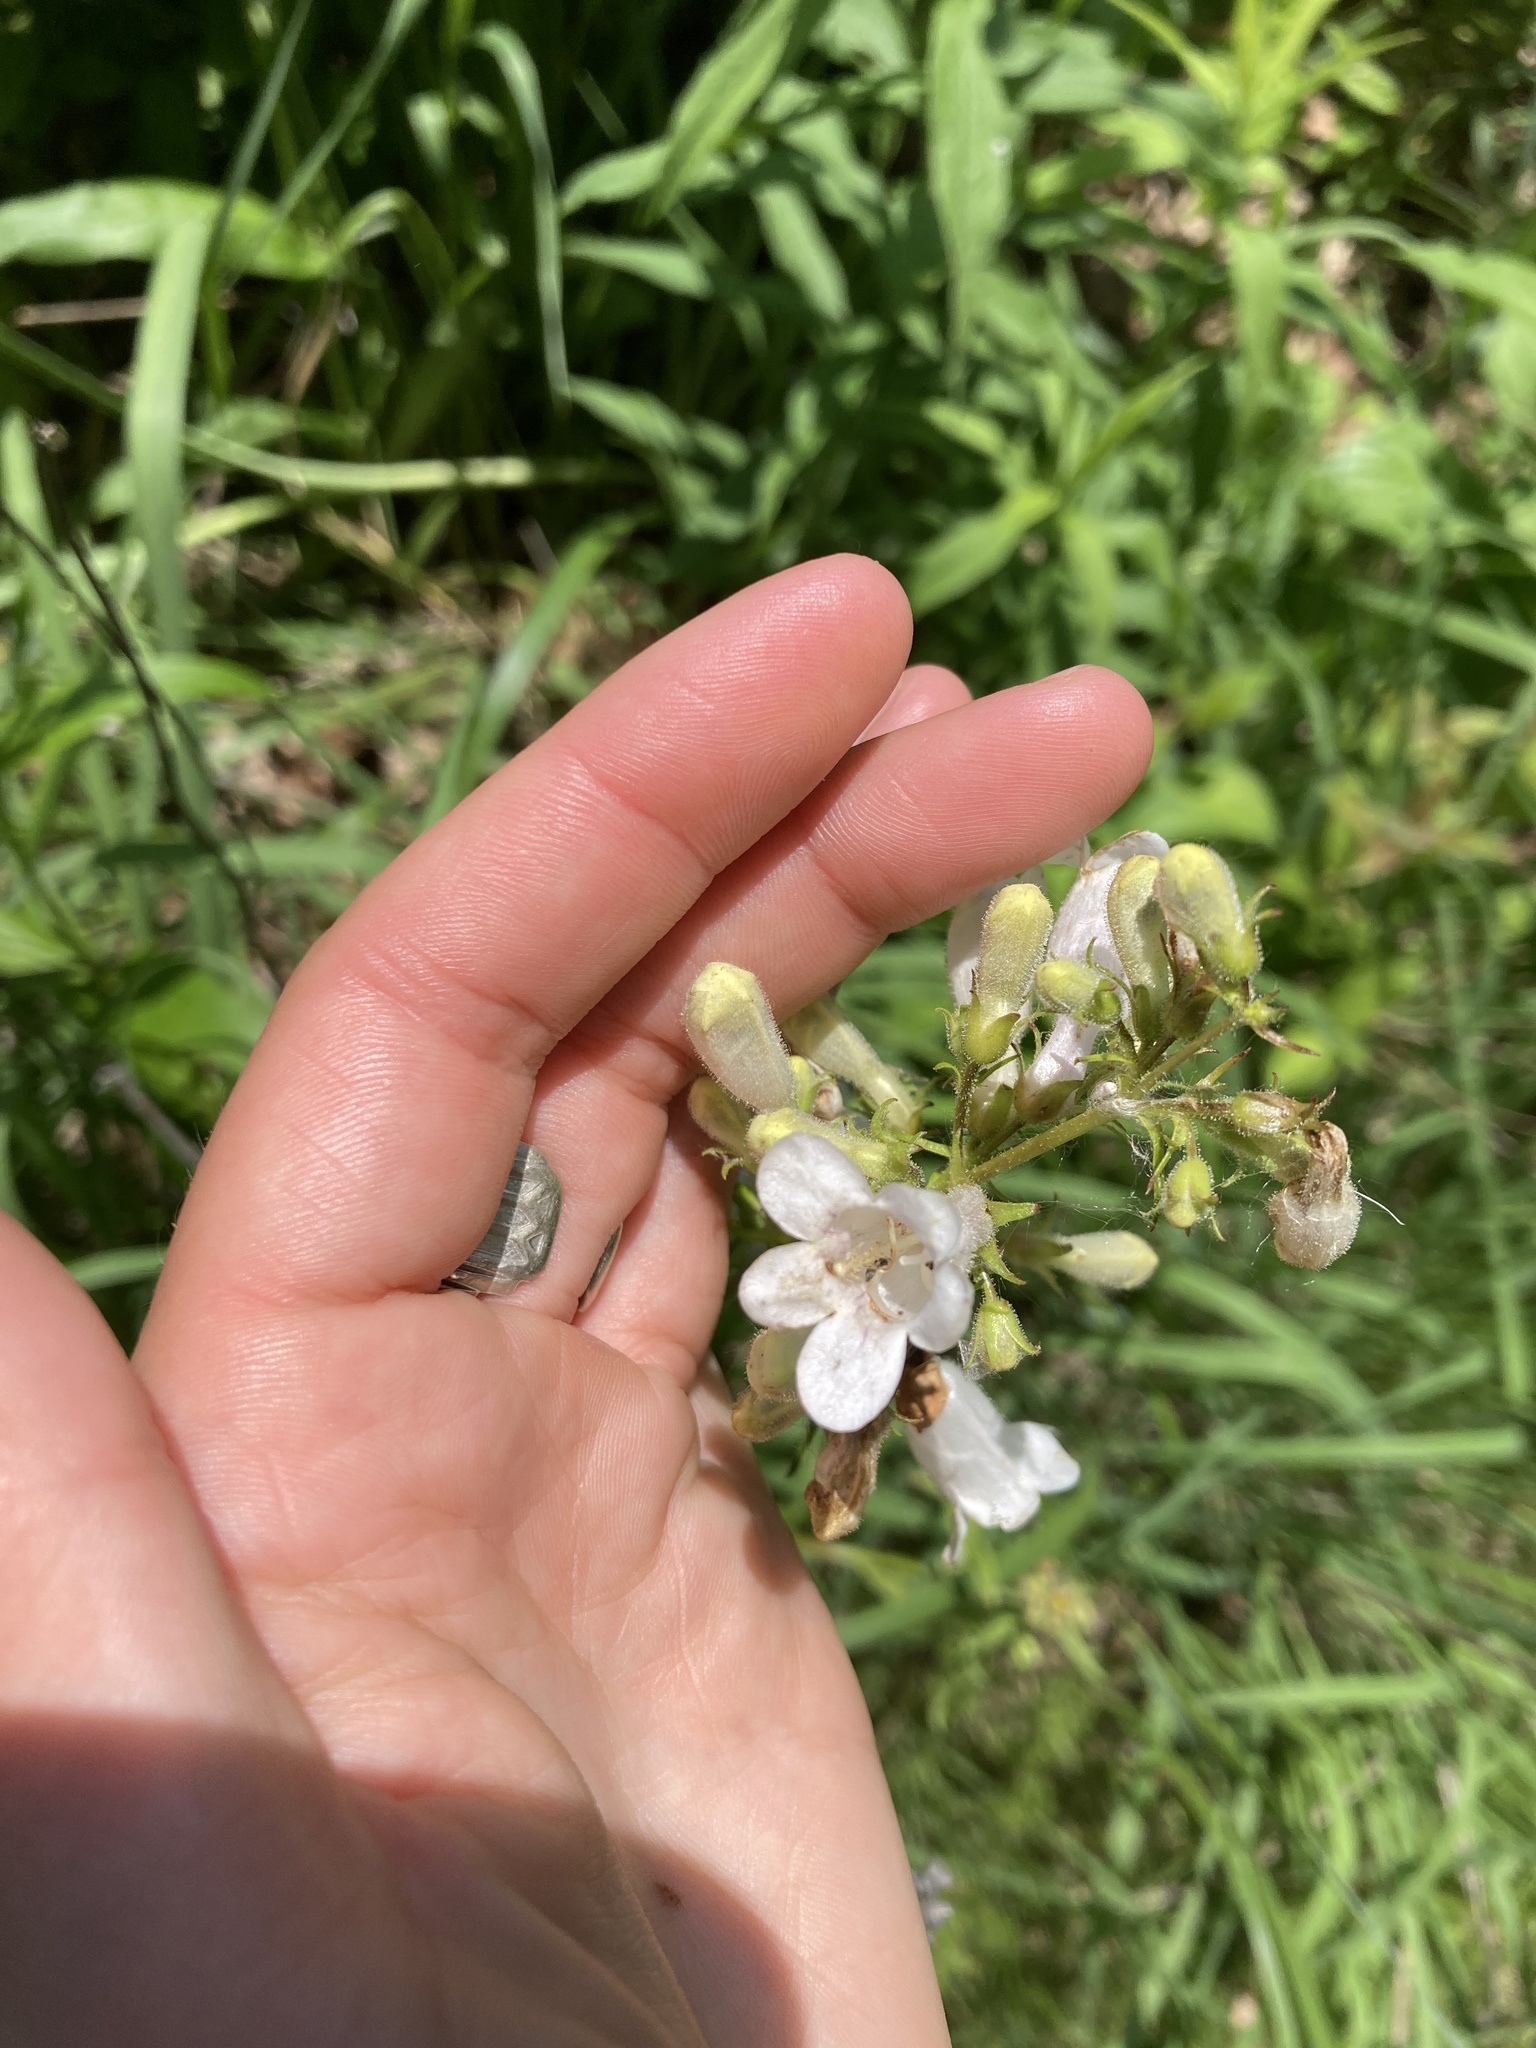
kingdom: Plantae
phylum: Tracheophyta
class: Magnoliopsida
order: Lamiales
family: Plantaginaceae
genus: Penstemon
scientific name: Penstemon digitalis
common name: Foxglove beardtongue
